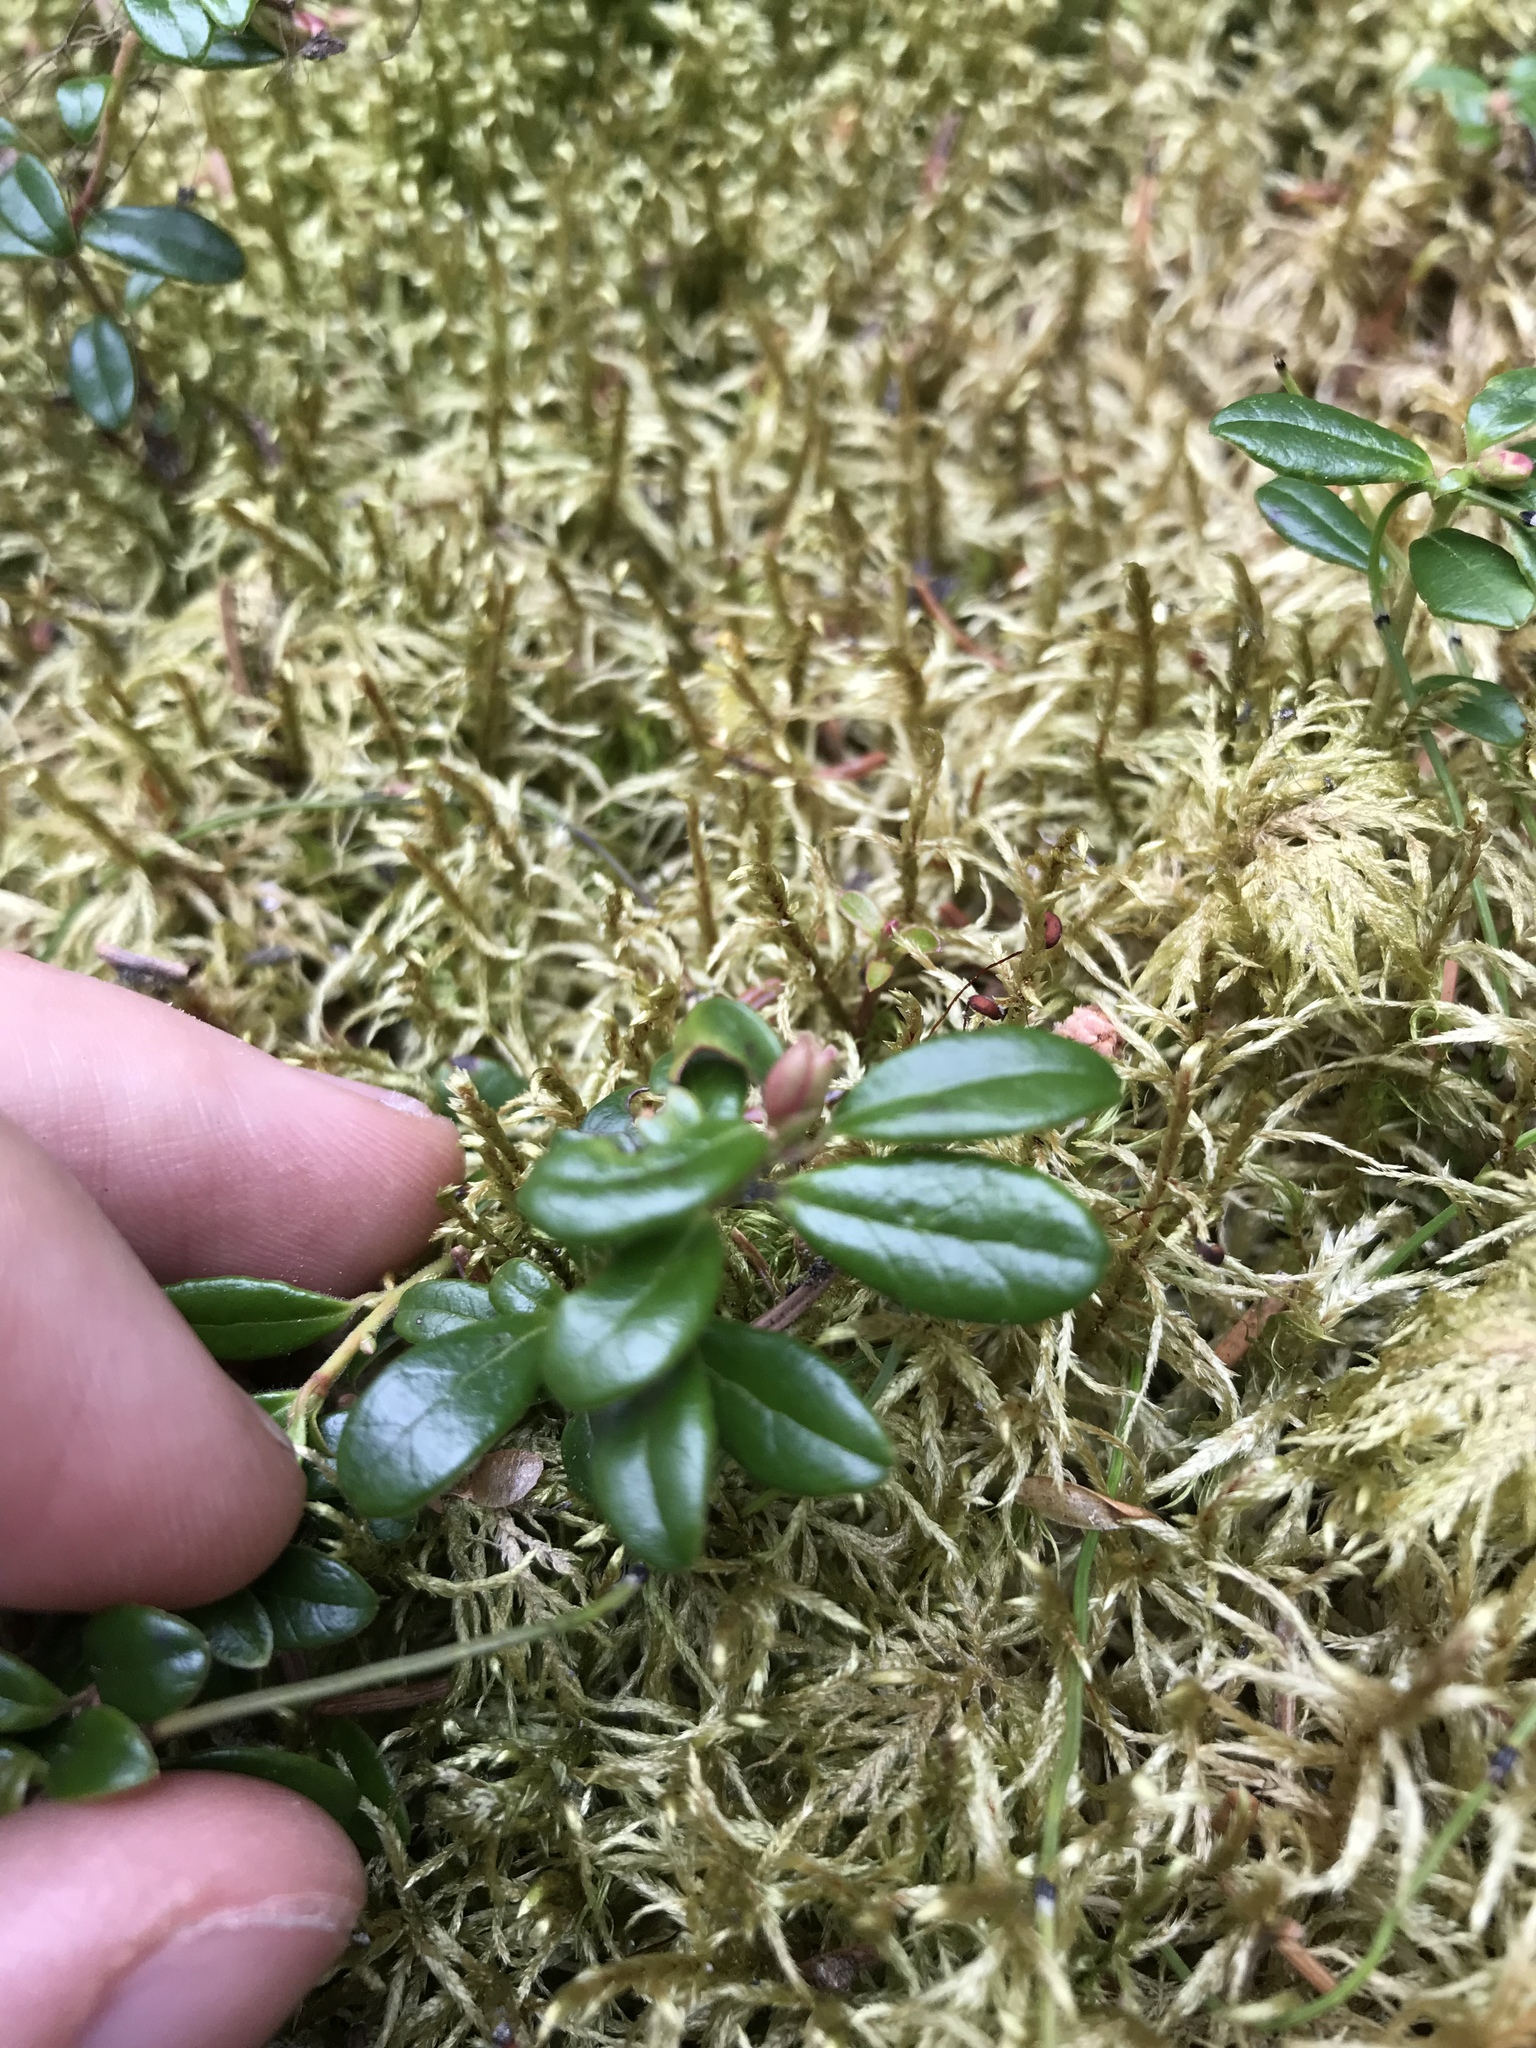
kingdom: Plantae
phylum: Tracheophyta
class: Magnoliopsida
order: Ericales
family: Ericaceae
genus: Vaccinium
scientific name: Vaccinium vitis-idaea
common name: Cowberry
